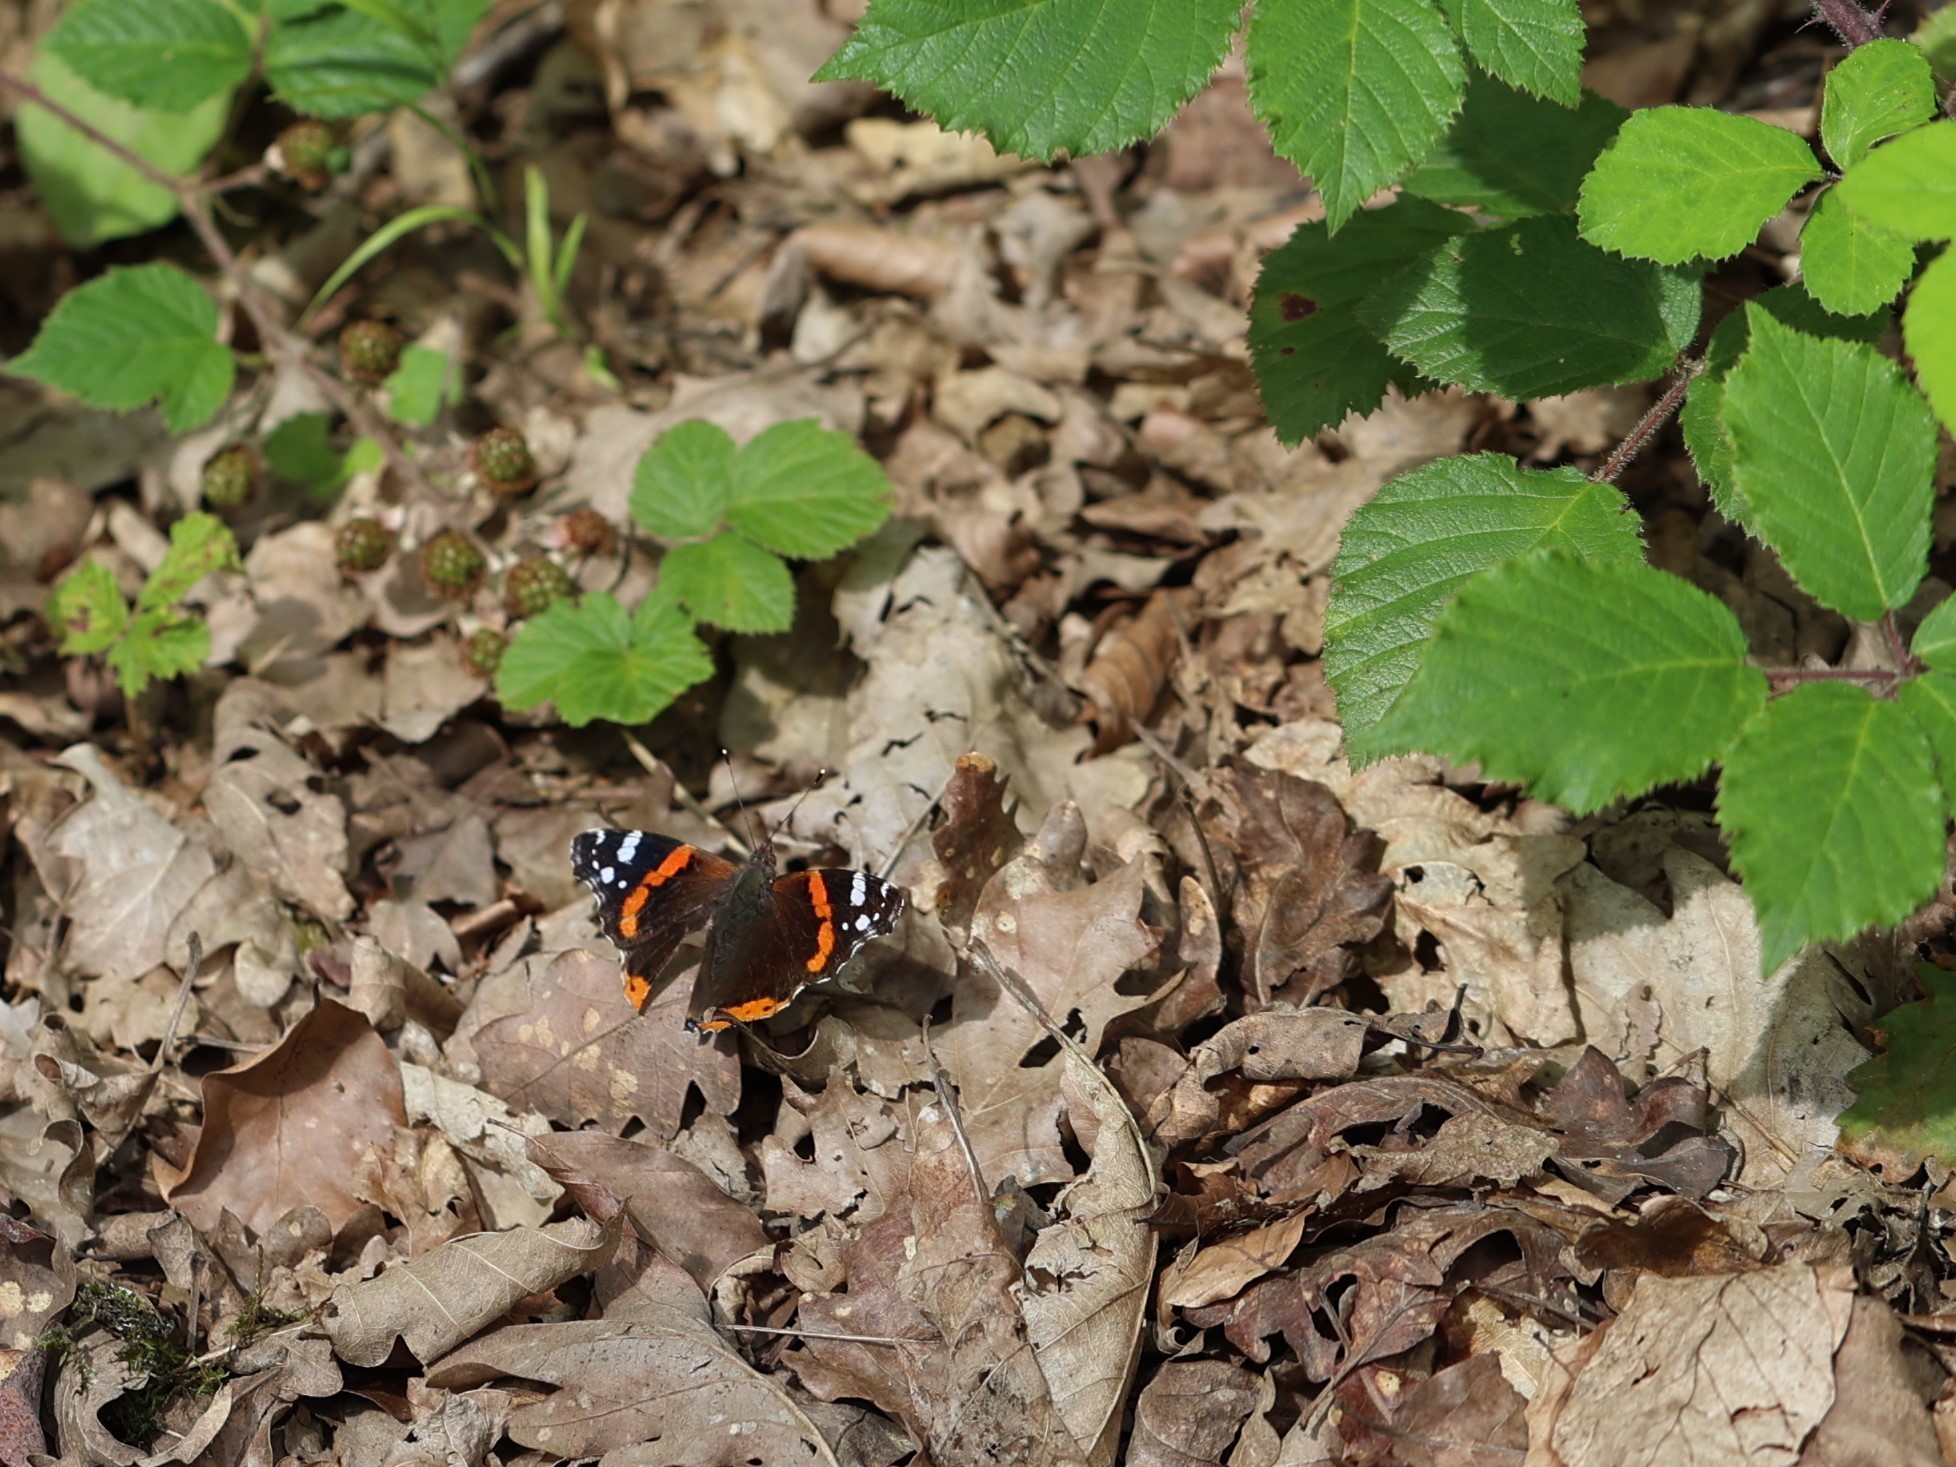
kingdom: Animalia
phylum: Arthropoda
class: Insecta
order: Lepidoptera
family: Nymphalidae
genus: Vanessa
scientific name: Vanessa atalanta
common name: Red admiral
